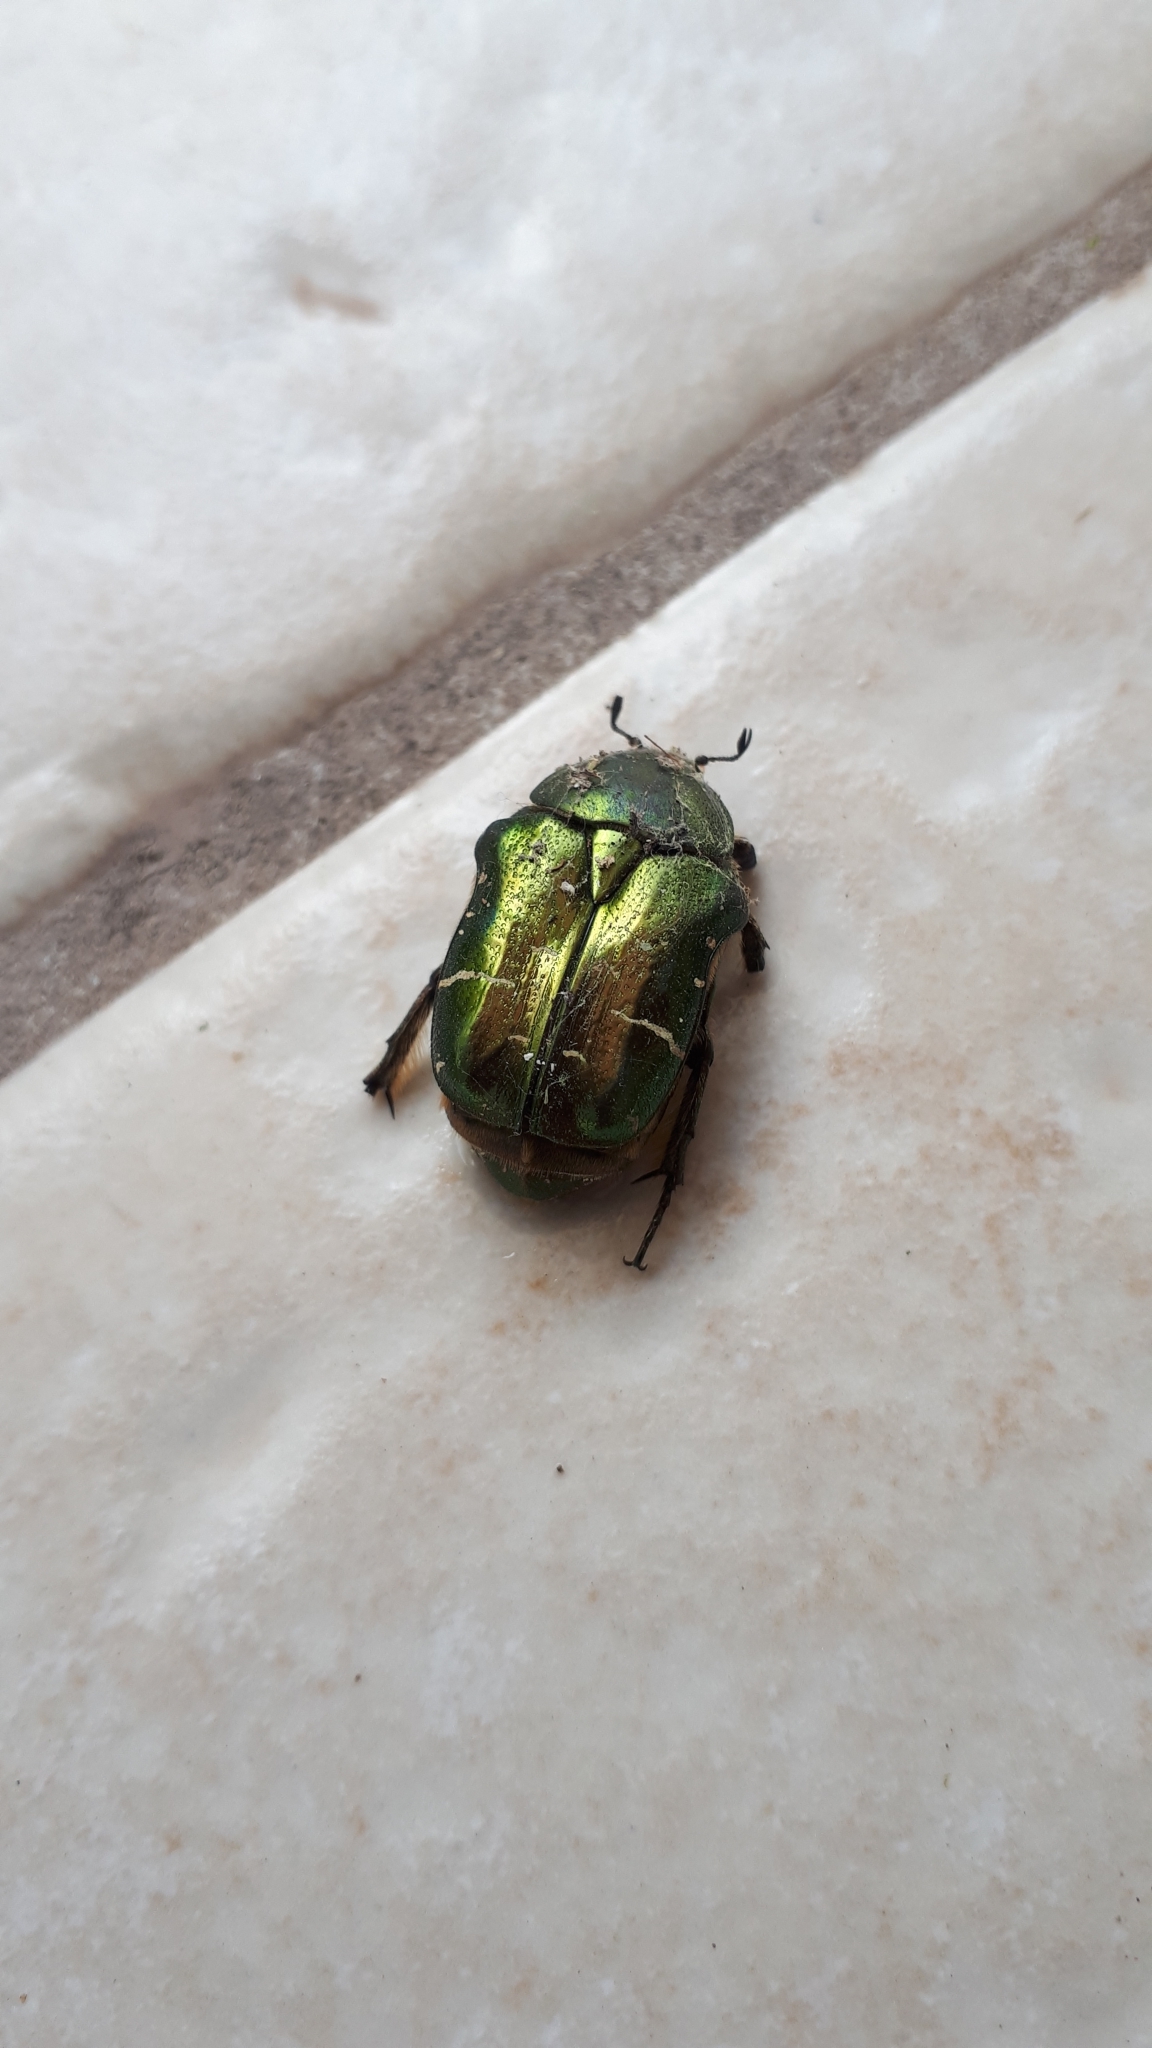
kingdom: Animalia
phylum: Arthropoda
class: Insecta
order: Coleoptera
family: Scarabaeidae
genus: Cetonia
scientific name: Cetonia aurata
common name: Rose chafer
